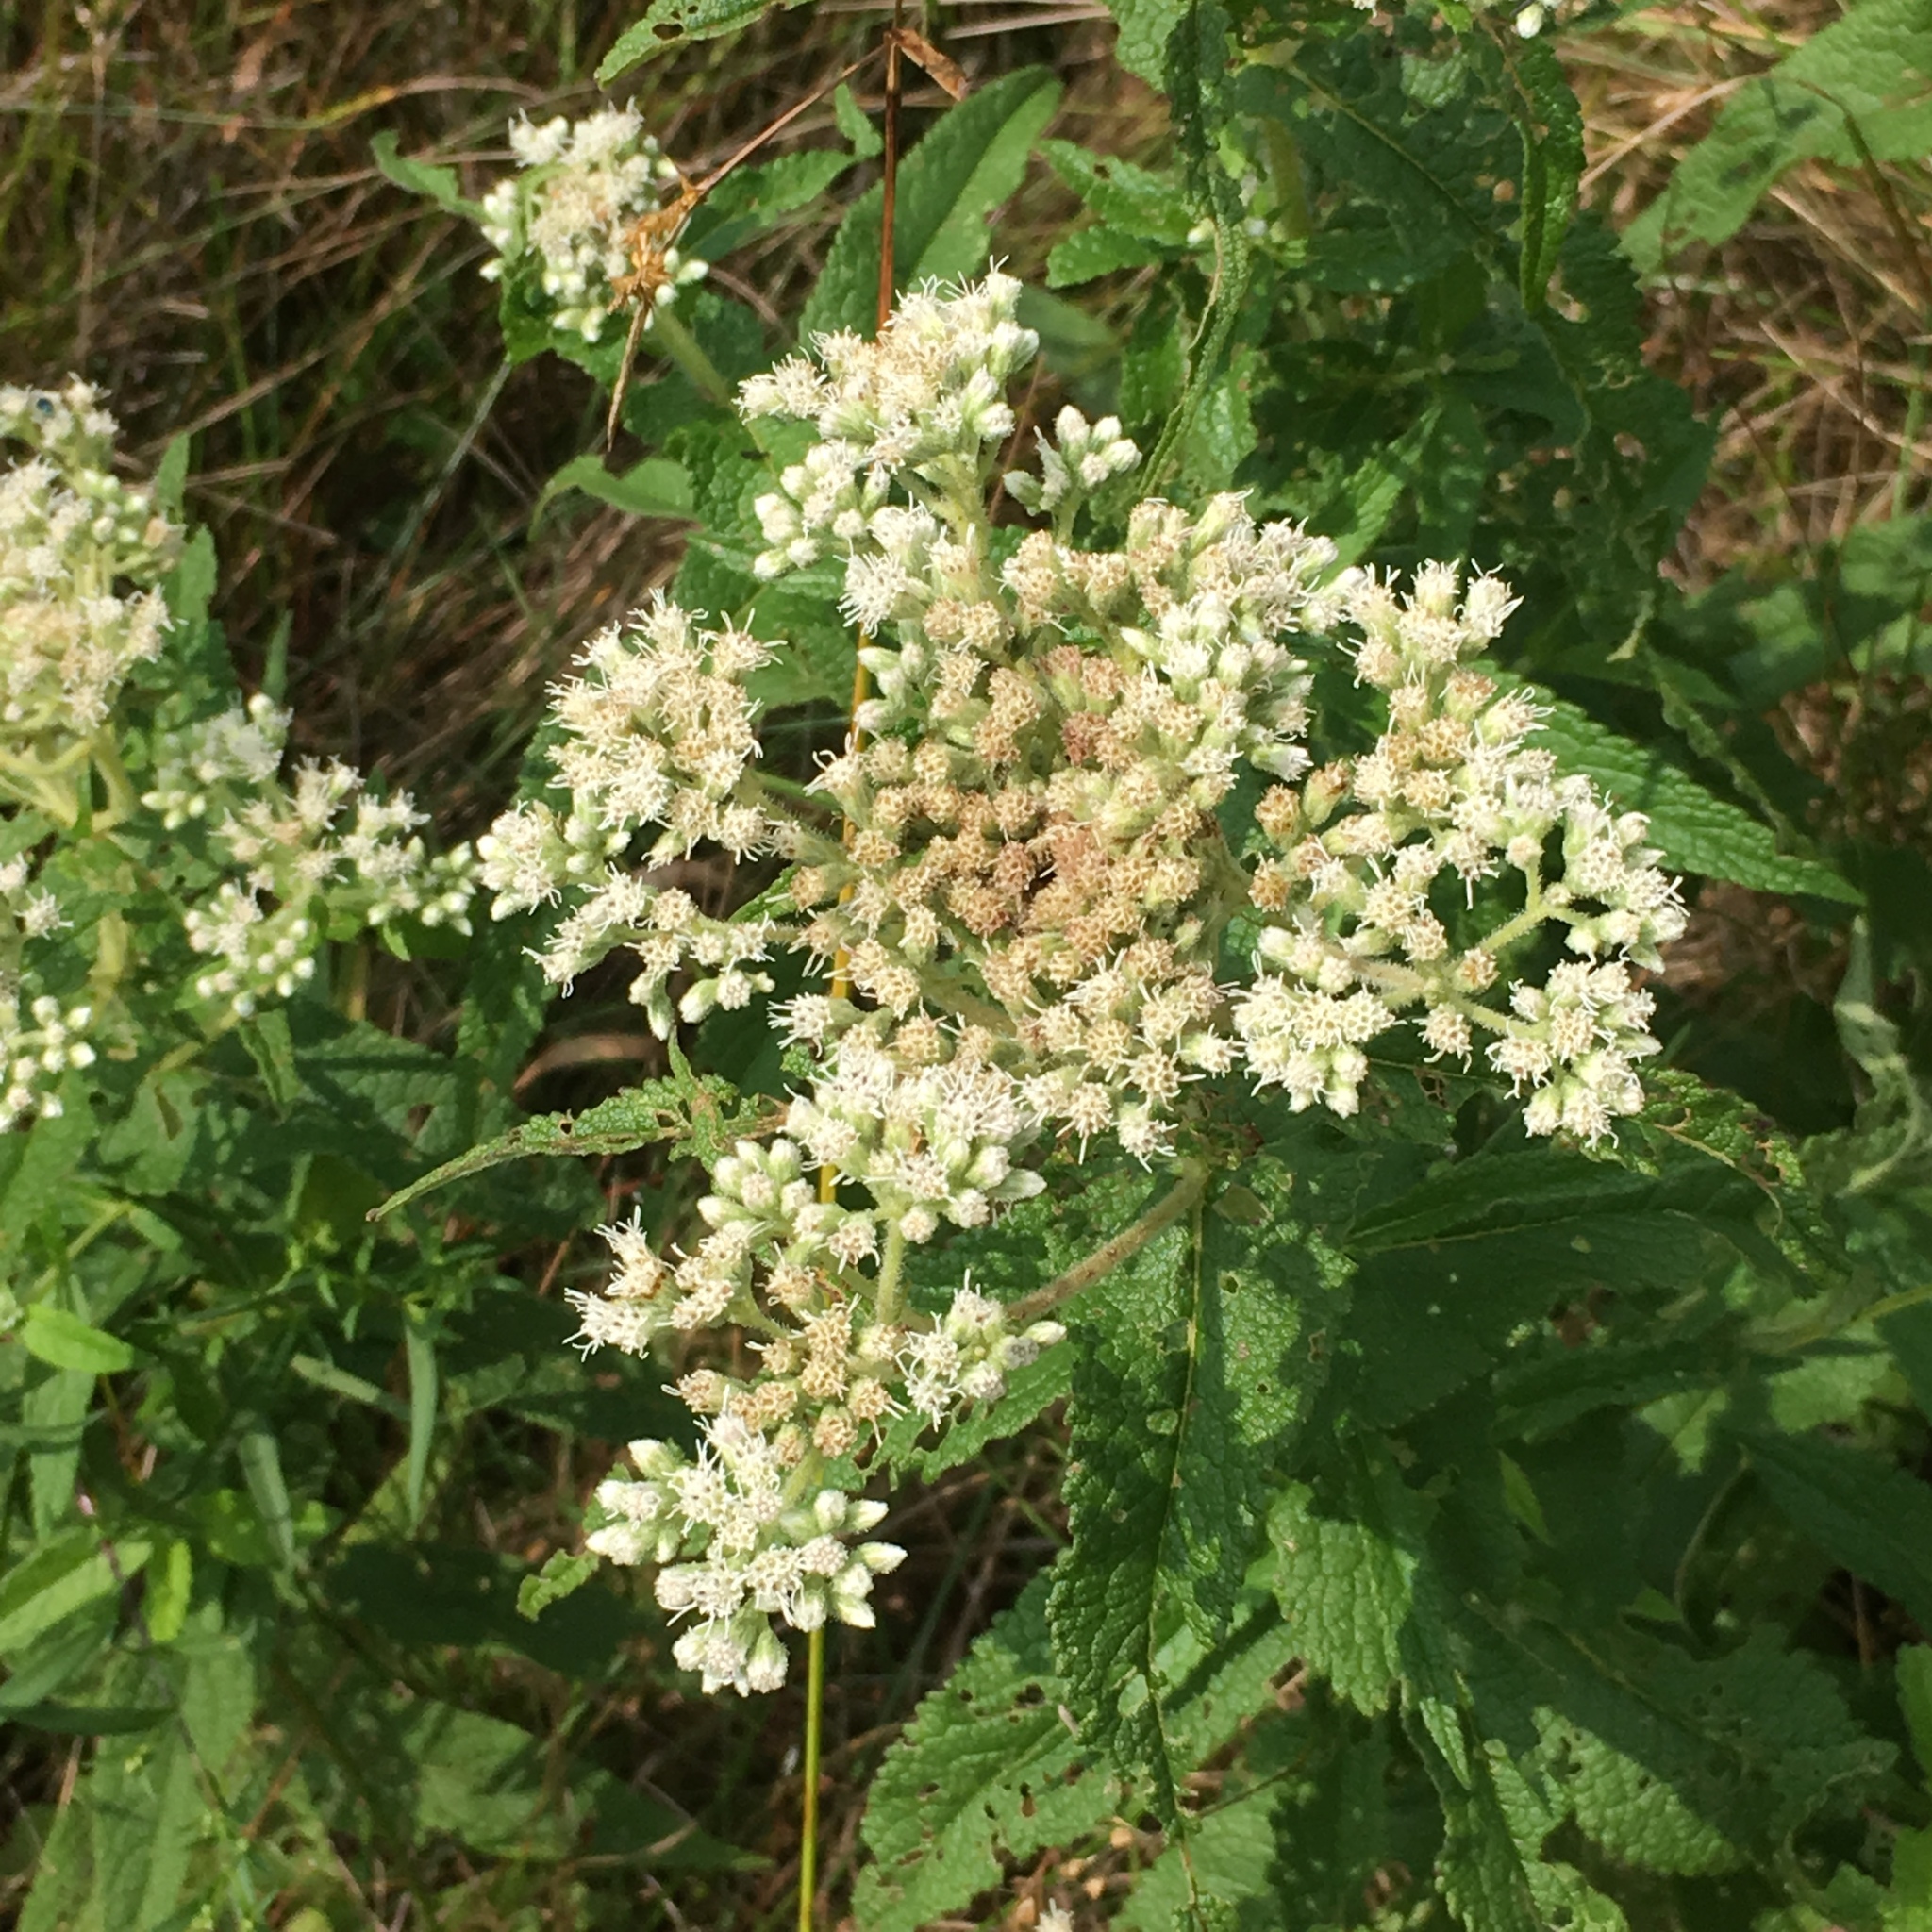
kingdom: Plantae
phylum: Tracheophyta
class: Magnoliopsida
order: Asterales
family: Asteraceae
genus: Eupatorium
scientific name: Eupatorium perfoliatum
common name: Boneset
